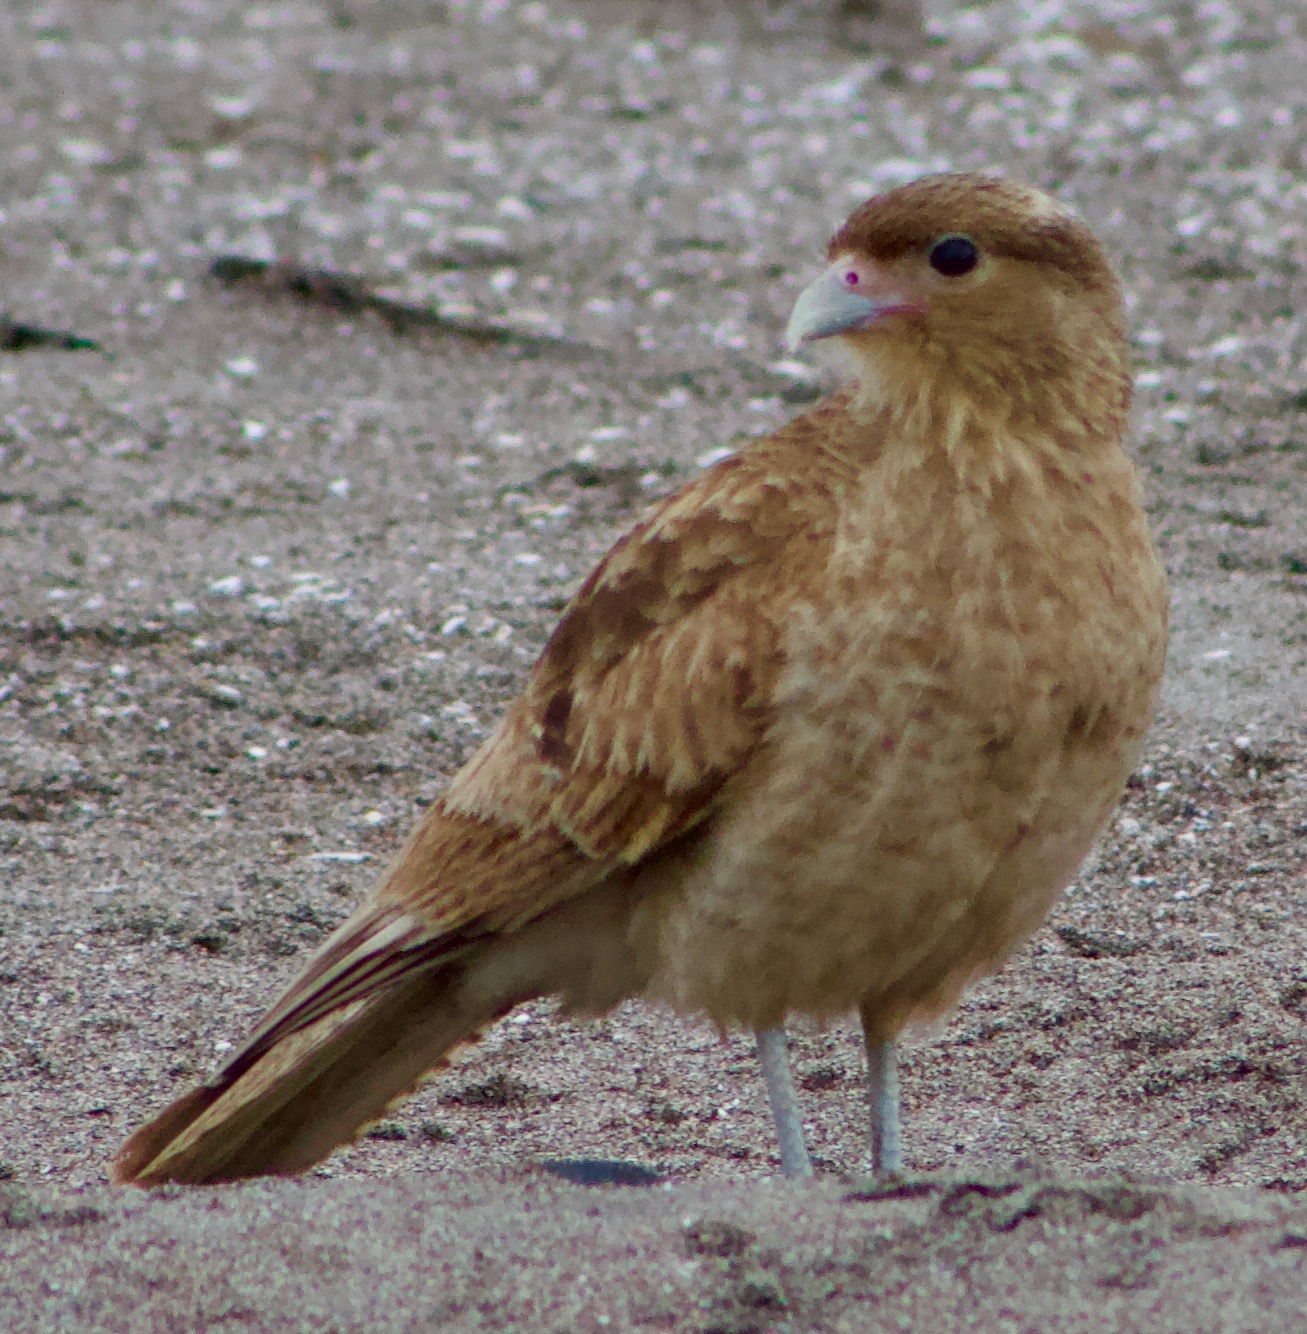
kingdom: Animalia
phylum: Chordata
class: Aves
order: Falconiformes
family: Falconidae
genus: Daptrius
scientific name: Daptrius
